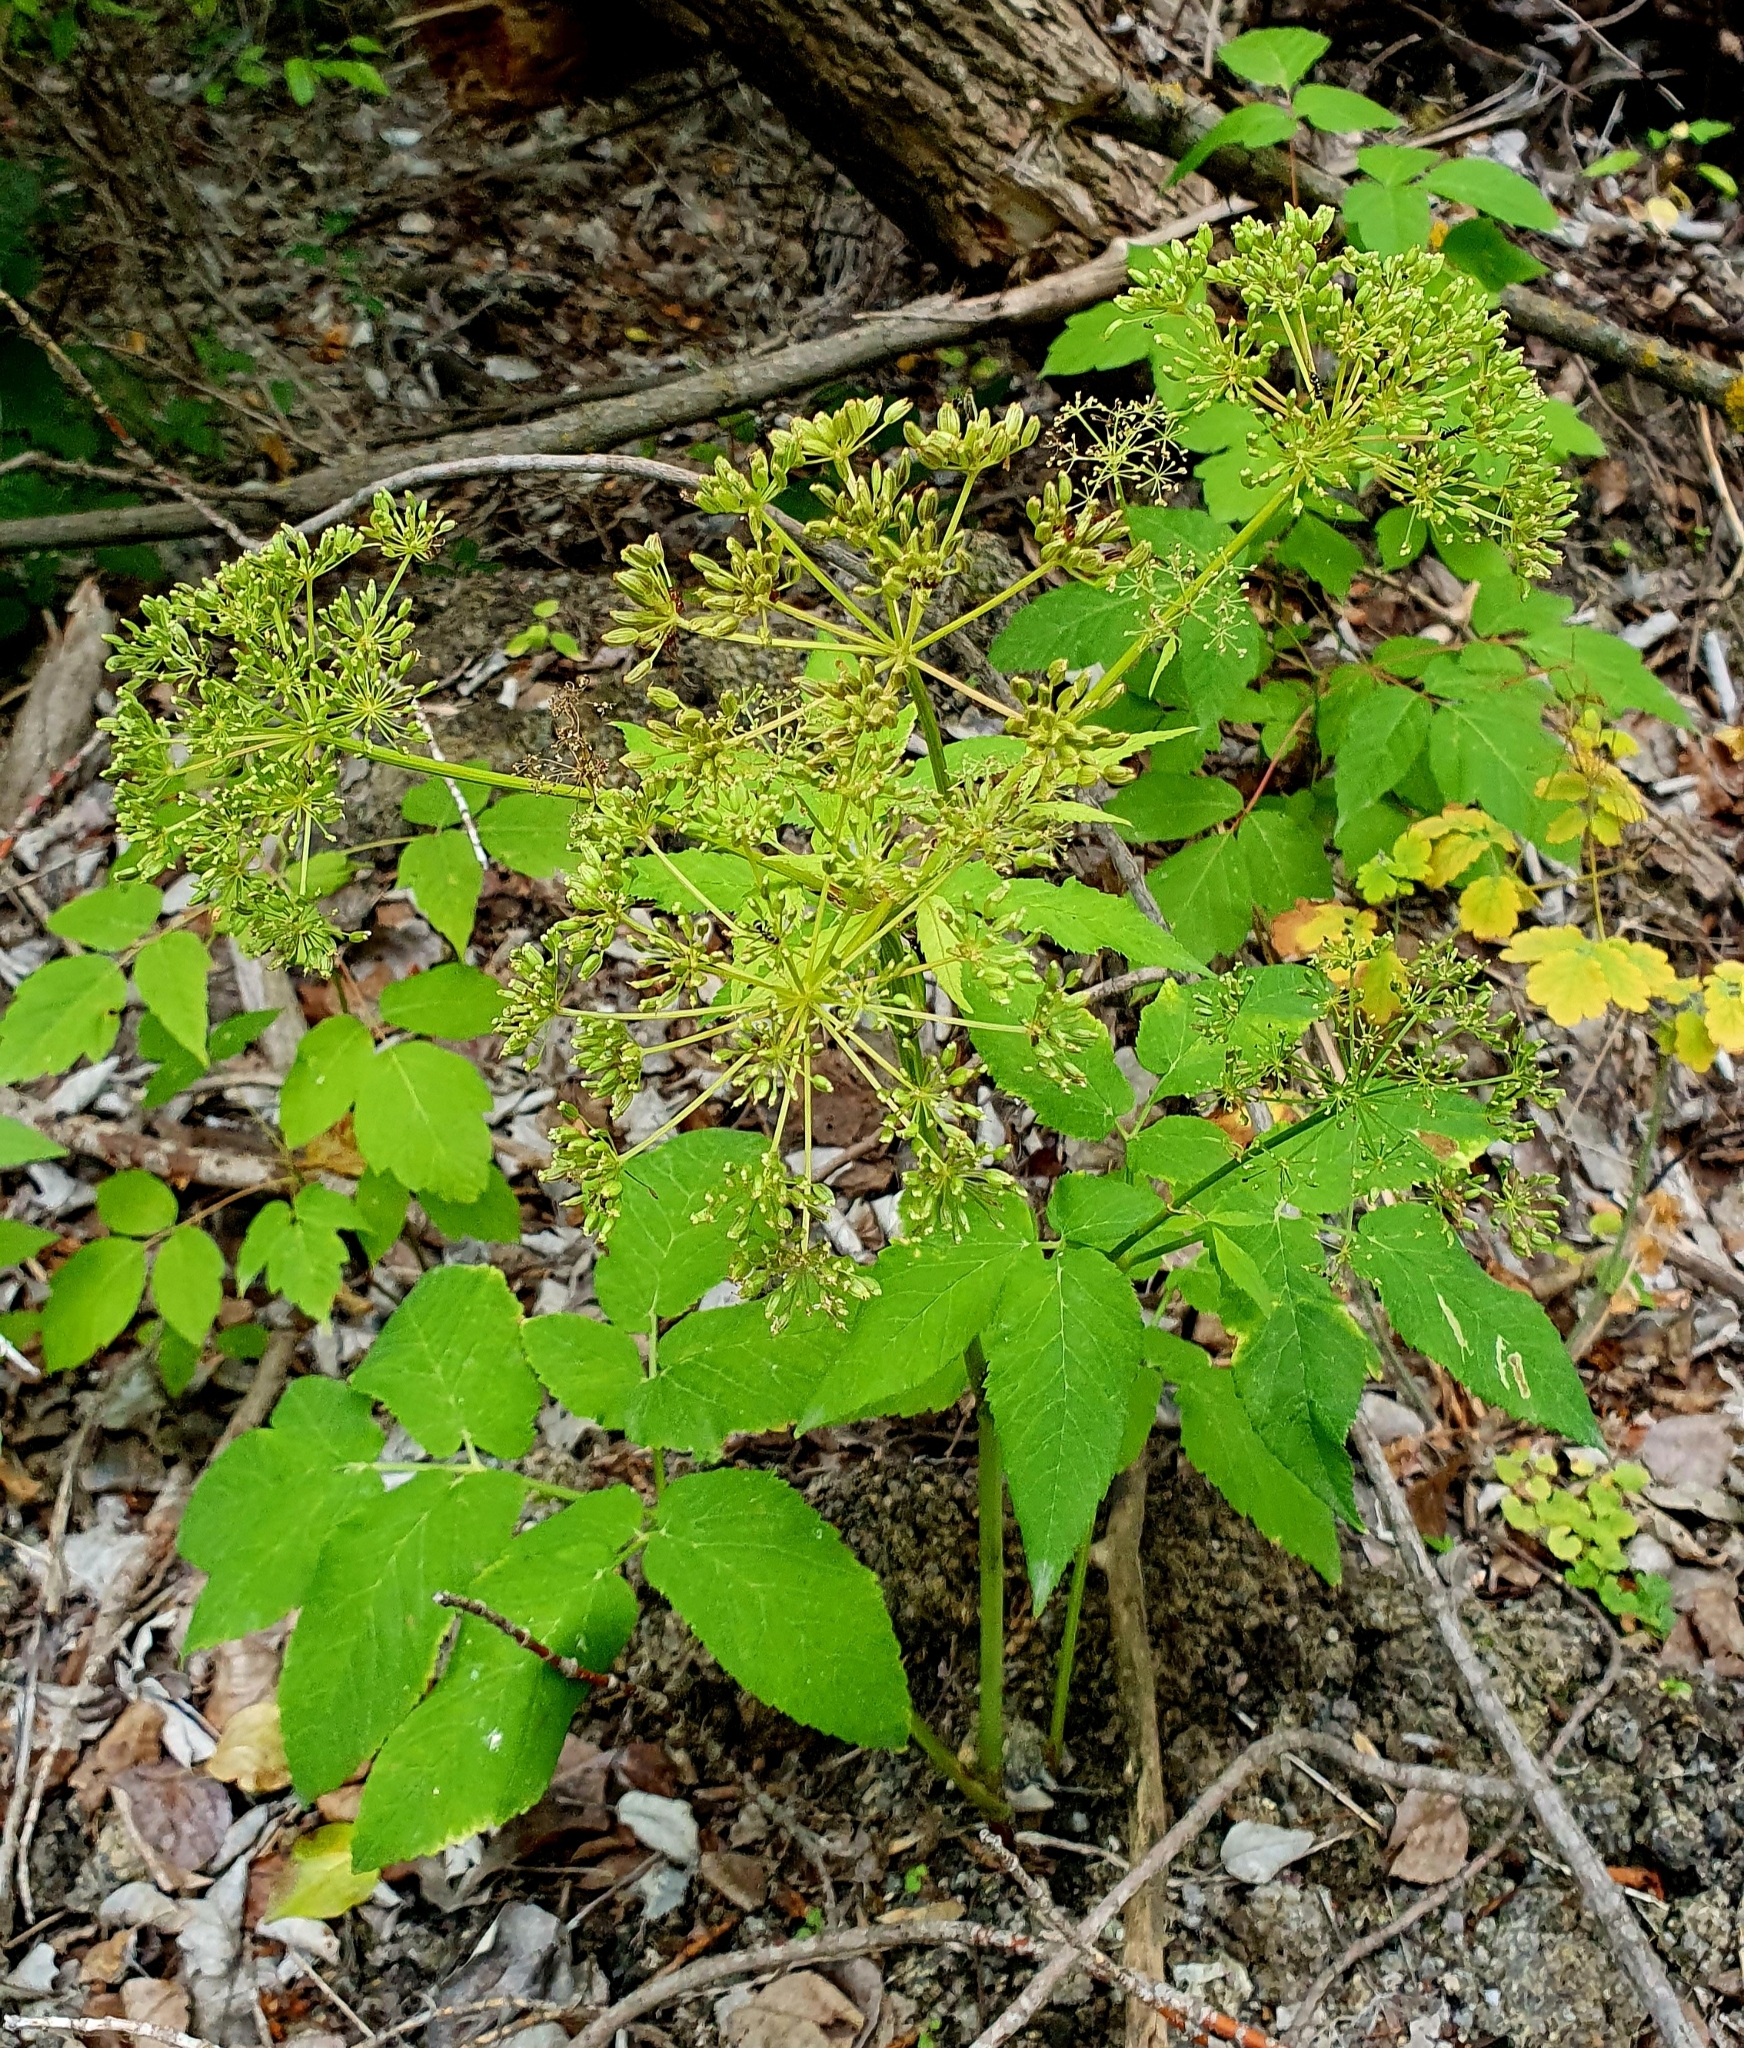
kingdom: Plantae
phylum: Tracheophyta
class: Magnoliopsida
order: Apiales
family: Apiaceae
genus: Aegopodium
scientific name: Aegopodium podagraria
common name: Ground-elder
